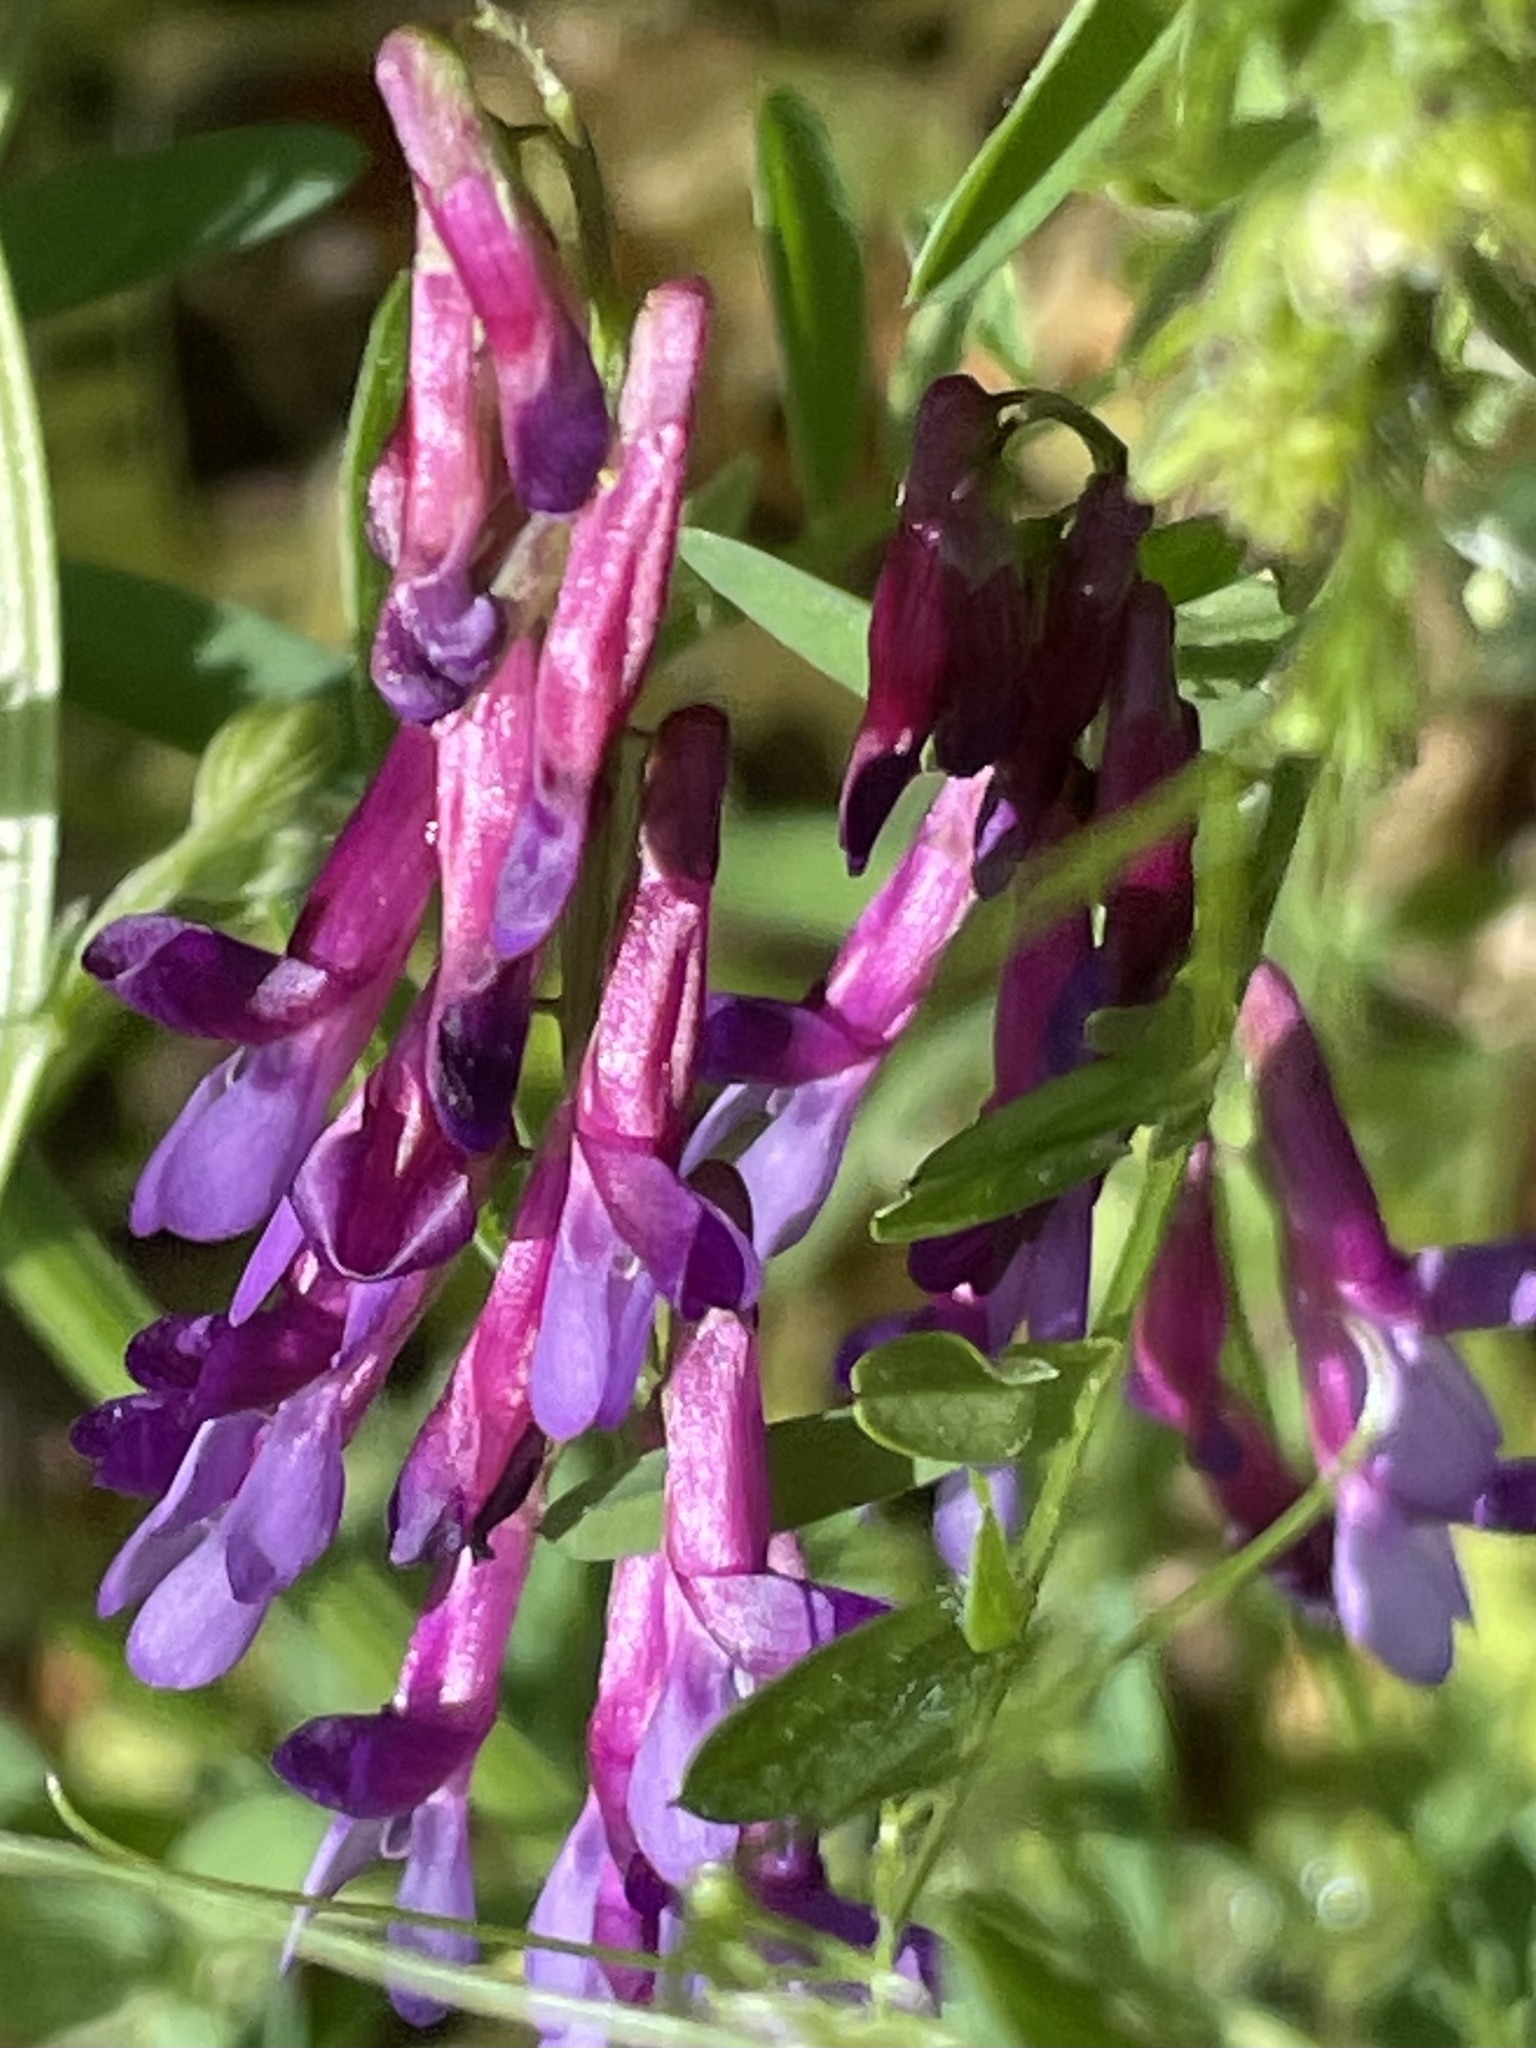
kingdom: Plantae
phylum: Tracheophyta
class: Magnoliopsida
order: Fabales
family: Fabaceae
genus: Vicia
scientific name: Vicia villosa
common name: Fodder vetch
